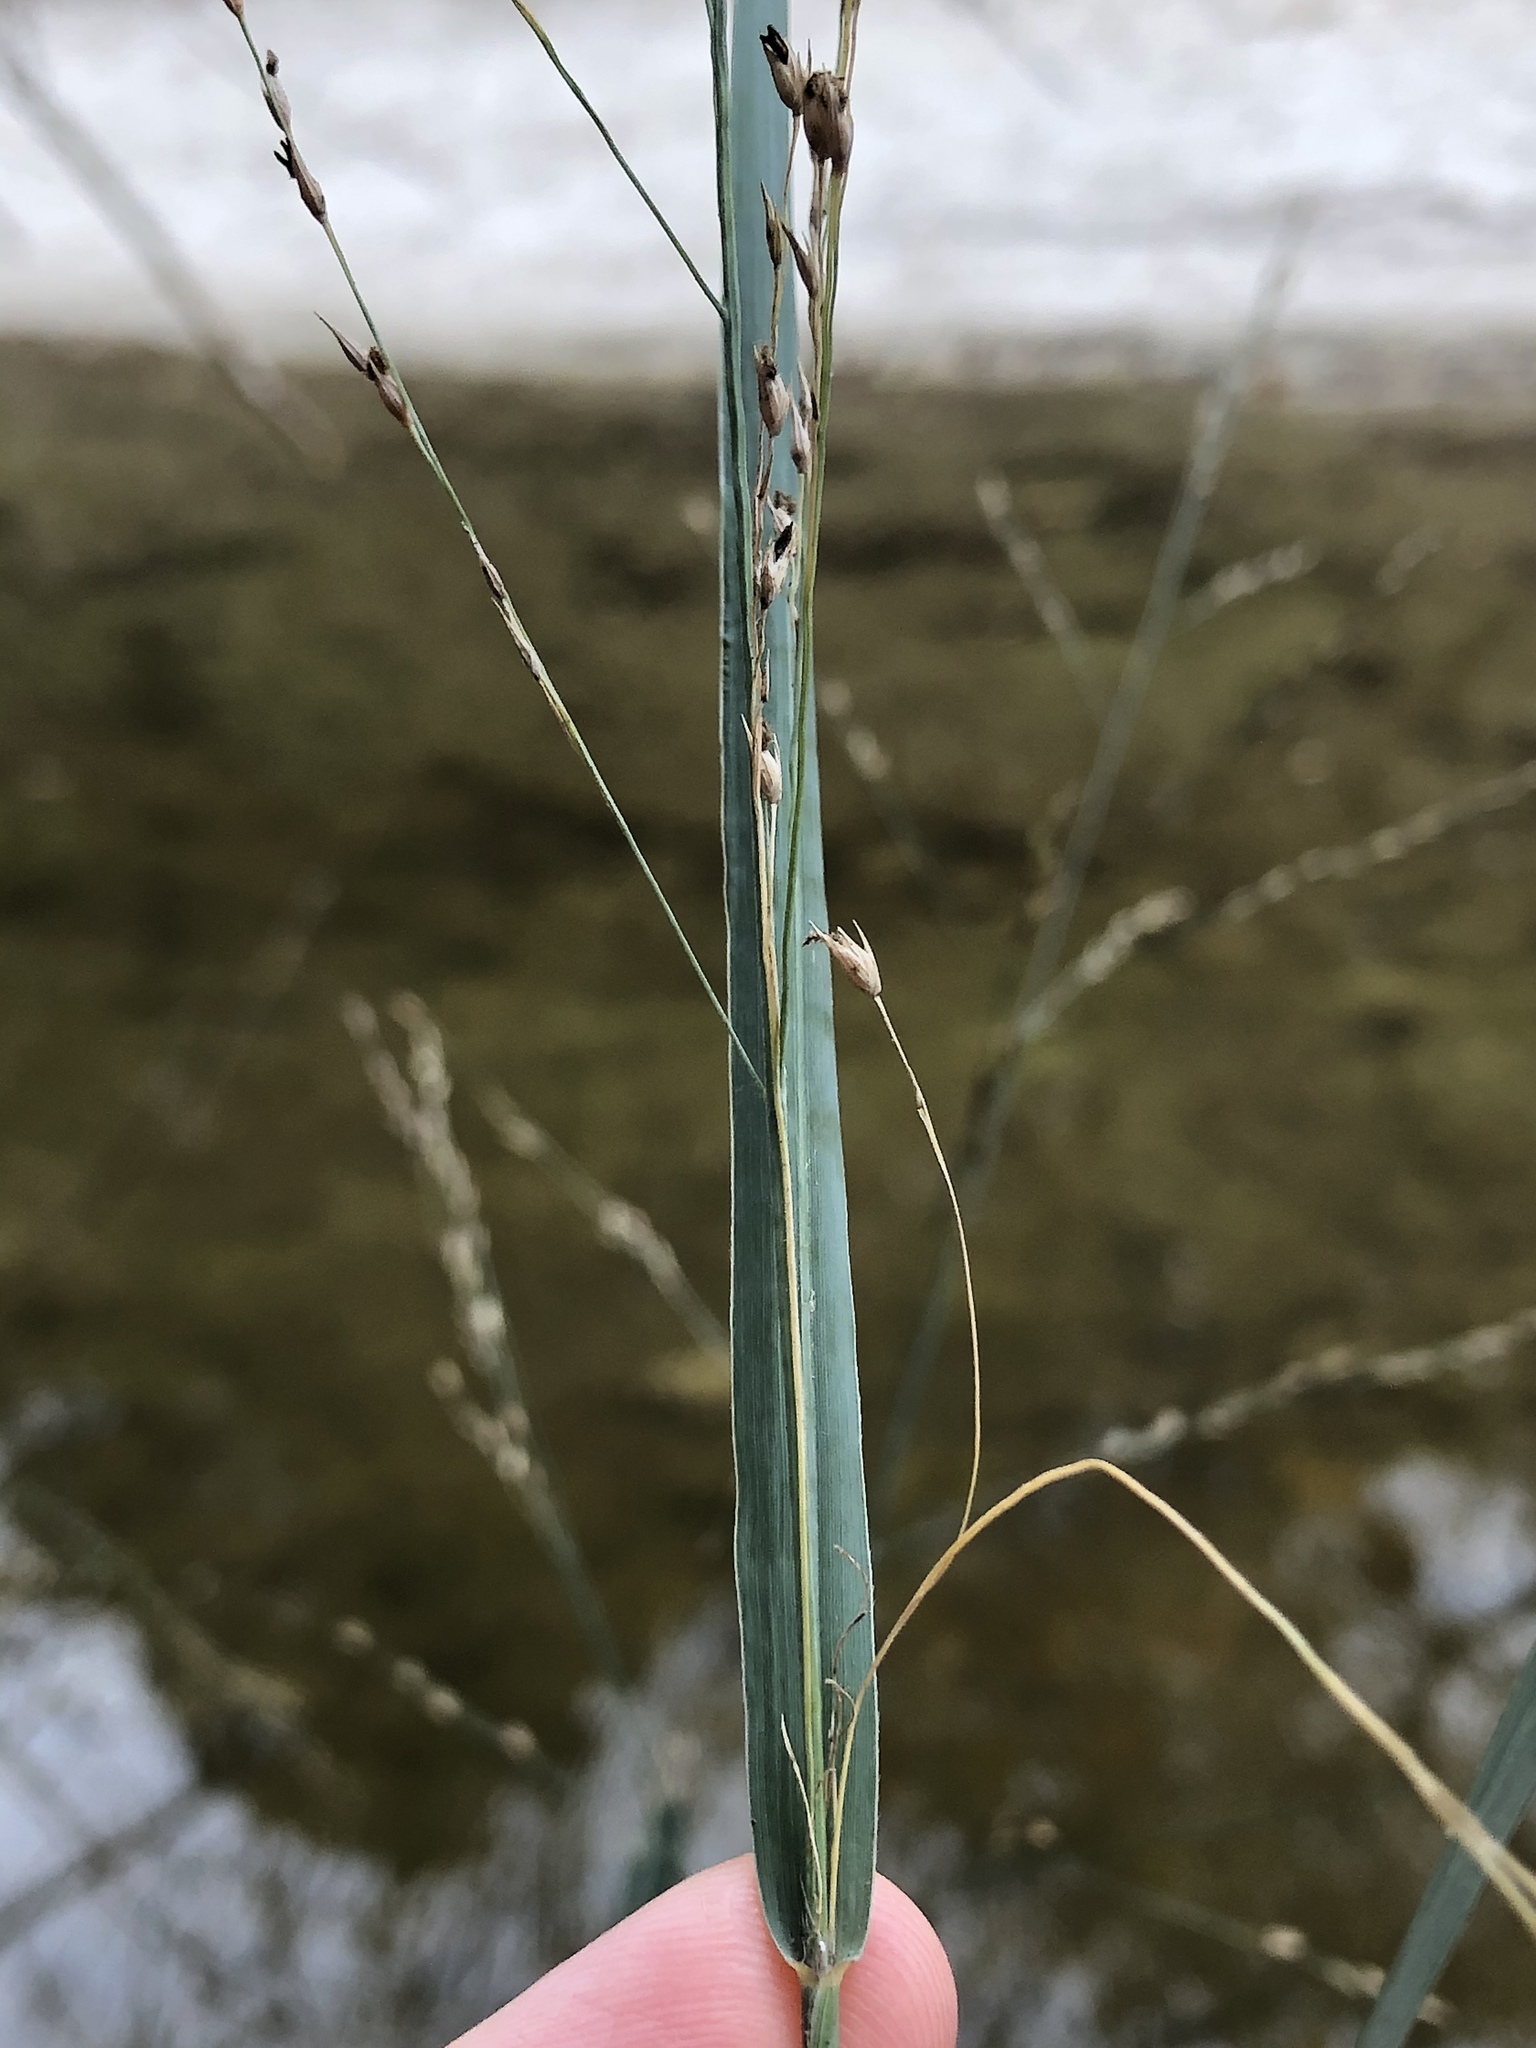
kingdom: Plantae
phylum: Tracheophyta
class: Liliopsida
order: Poales
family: Poaceae
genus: Panicum
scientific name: Panicum virgatum
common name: Switchgrass
